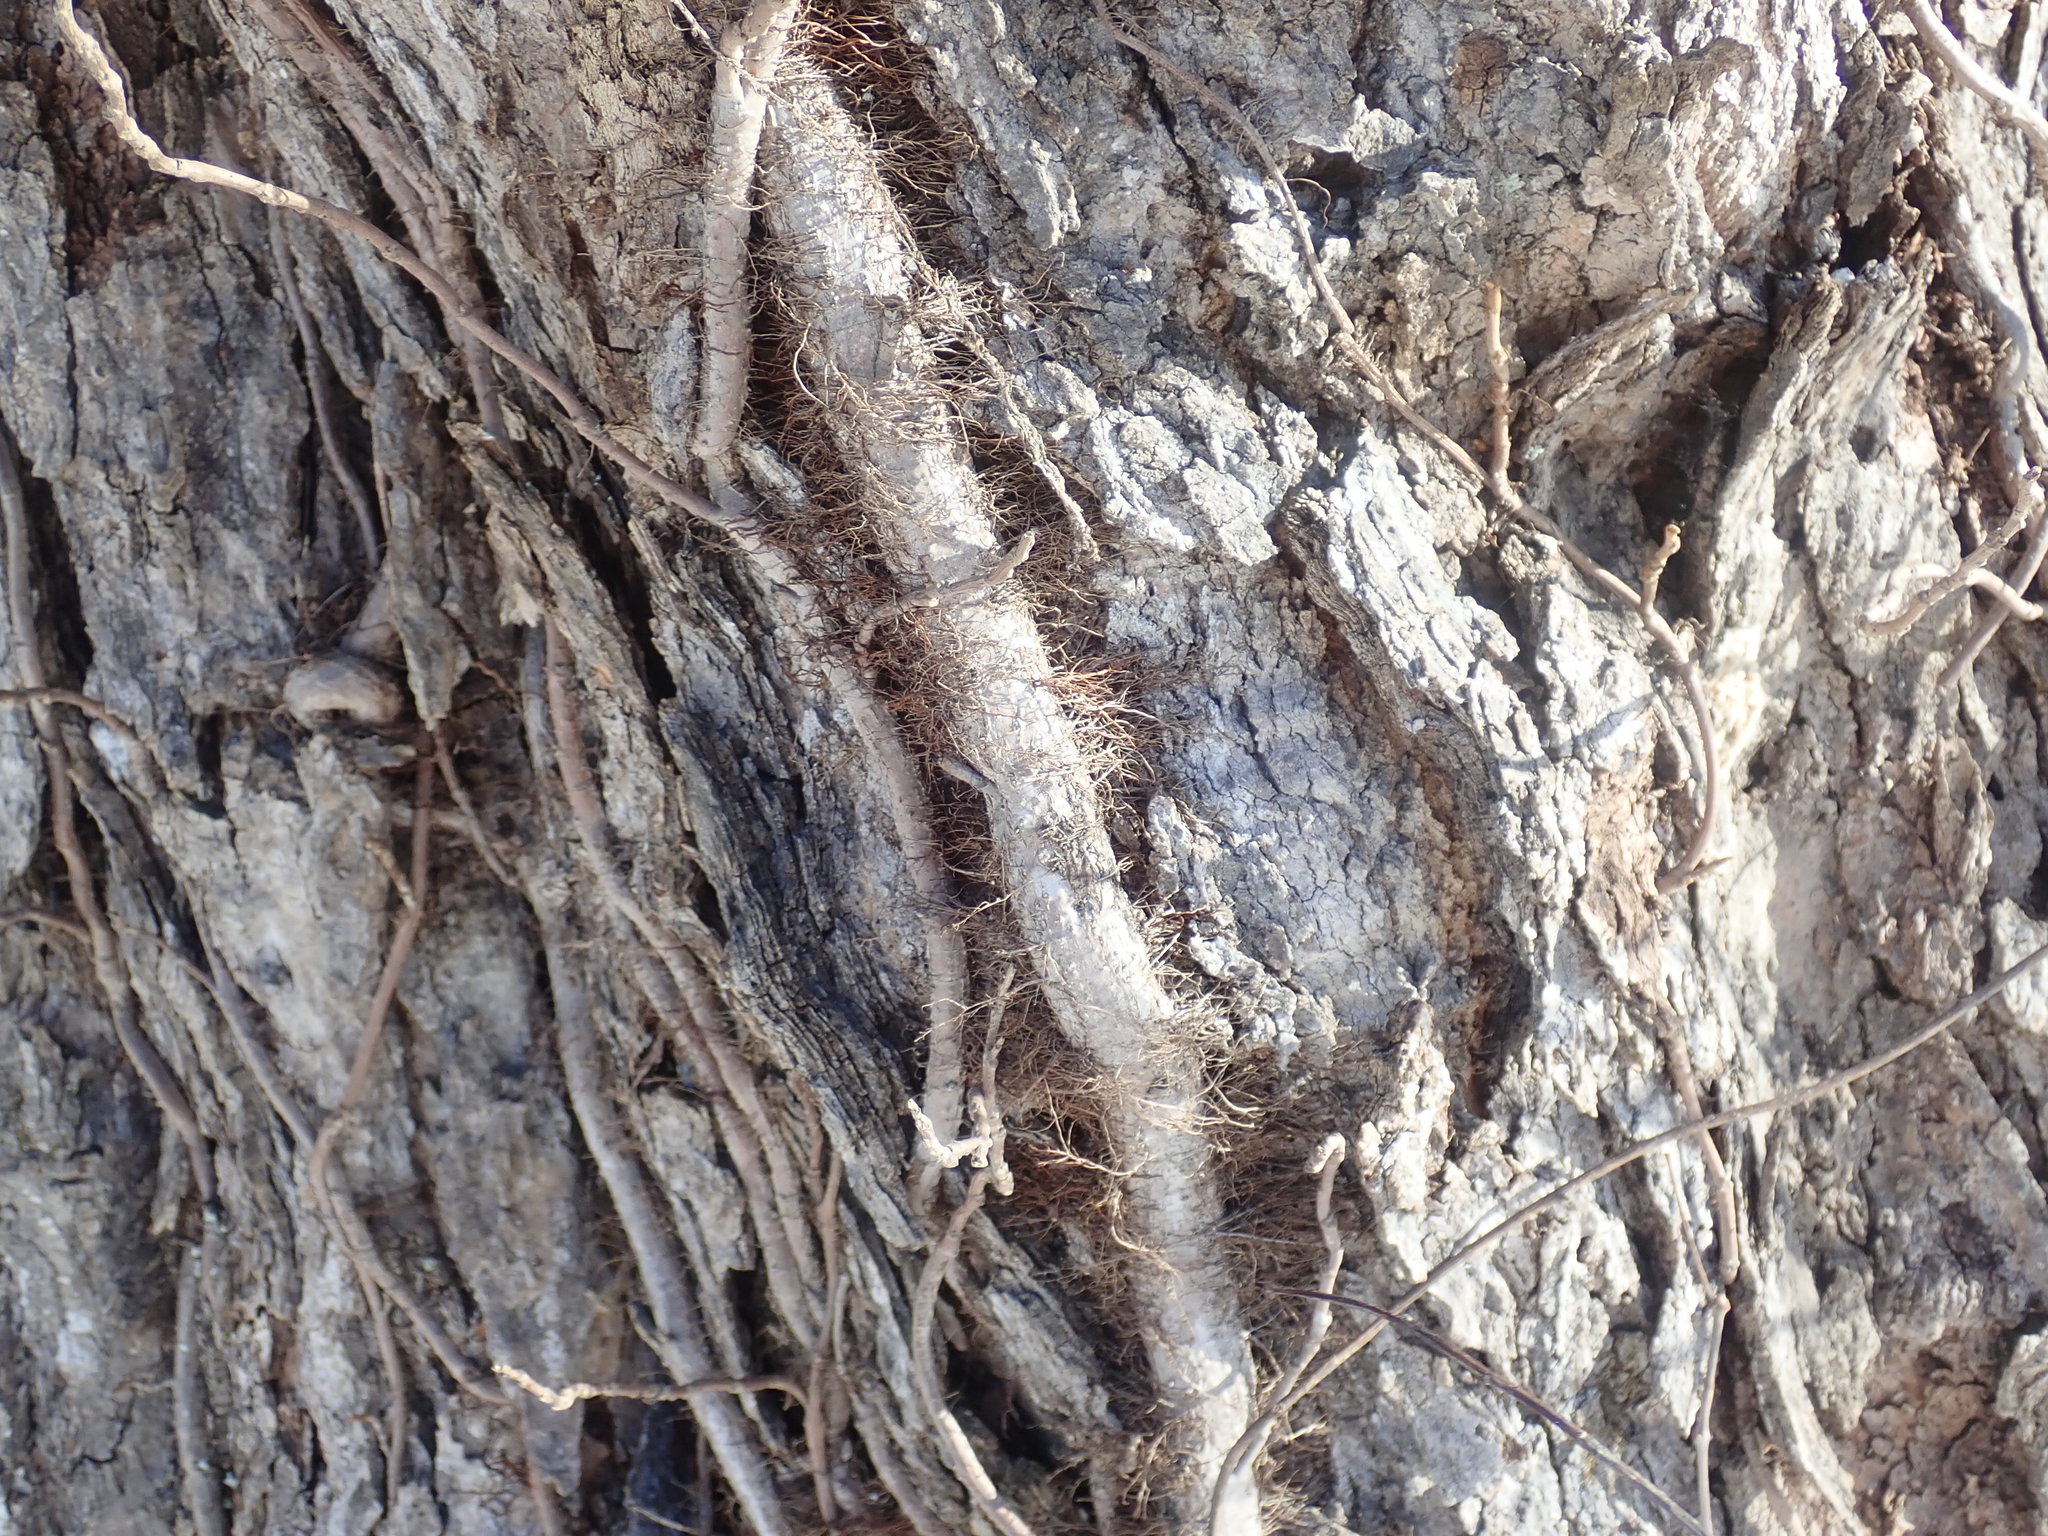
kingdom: Plantae
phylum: Tracheophyta
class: Magnoliopsida
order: Sapindales
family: Anacardiaceae
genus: Toxicodendron
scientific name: Toxicodendron radicans
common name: Poison ivy
